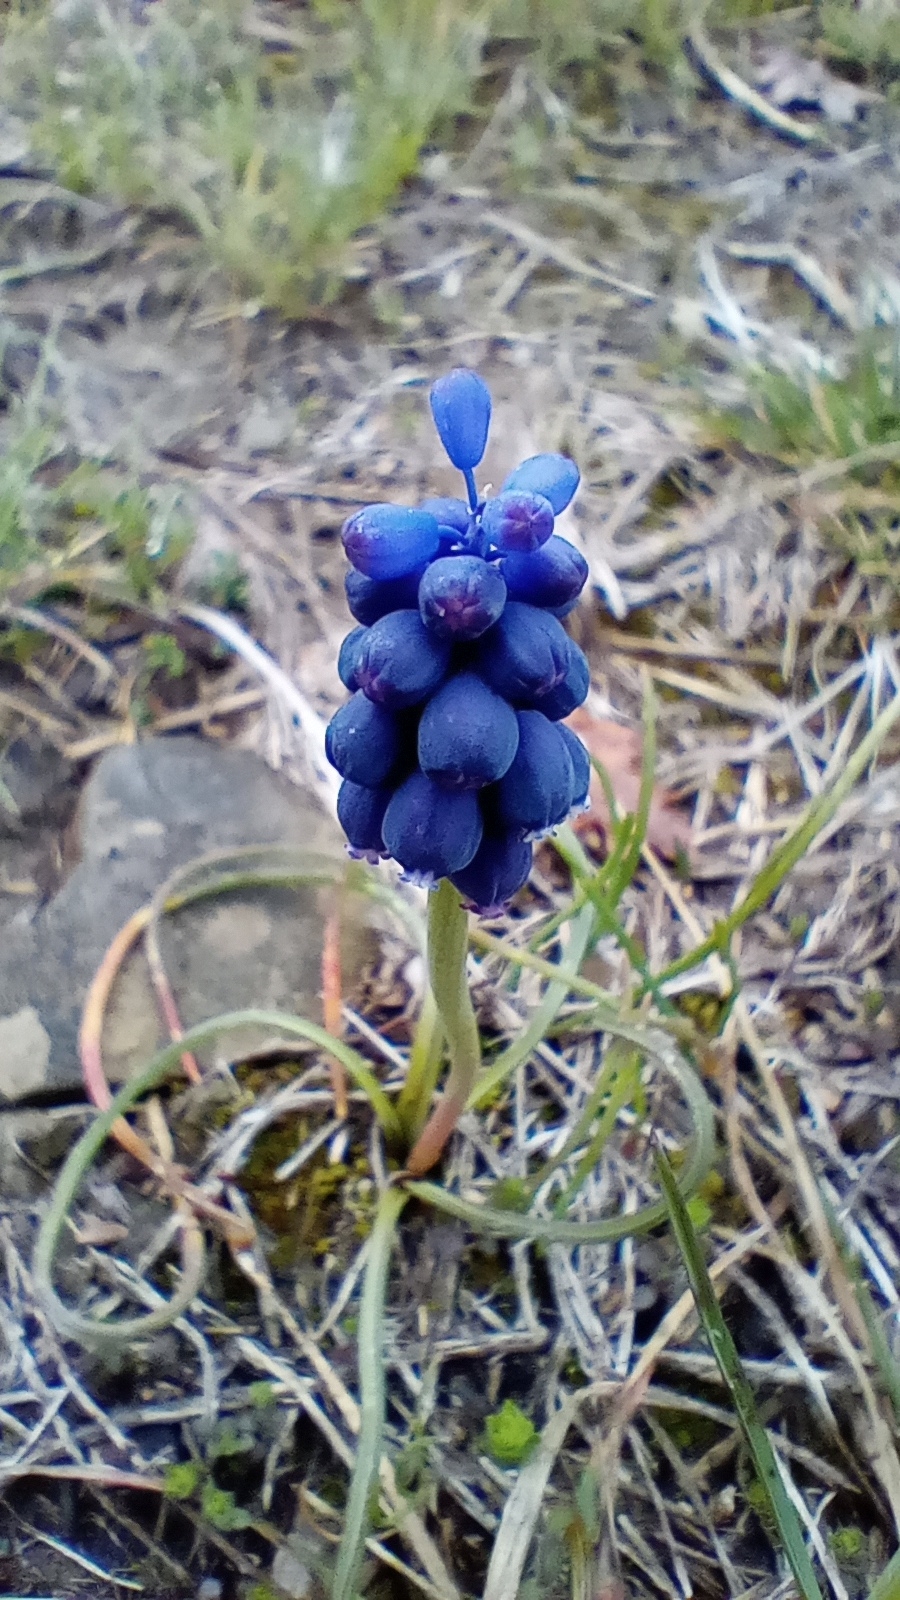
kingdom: Plantae
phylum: Tracheophyta
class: Liliopsida
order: Asparagales
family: Asparagaceae
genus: Muscari
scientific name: Muscari neglectum
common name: Grape-hyacinth
